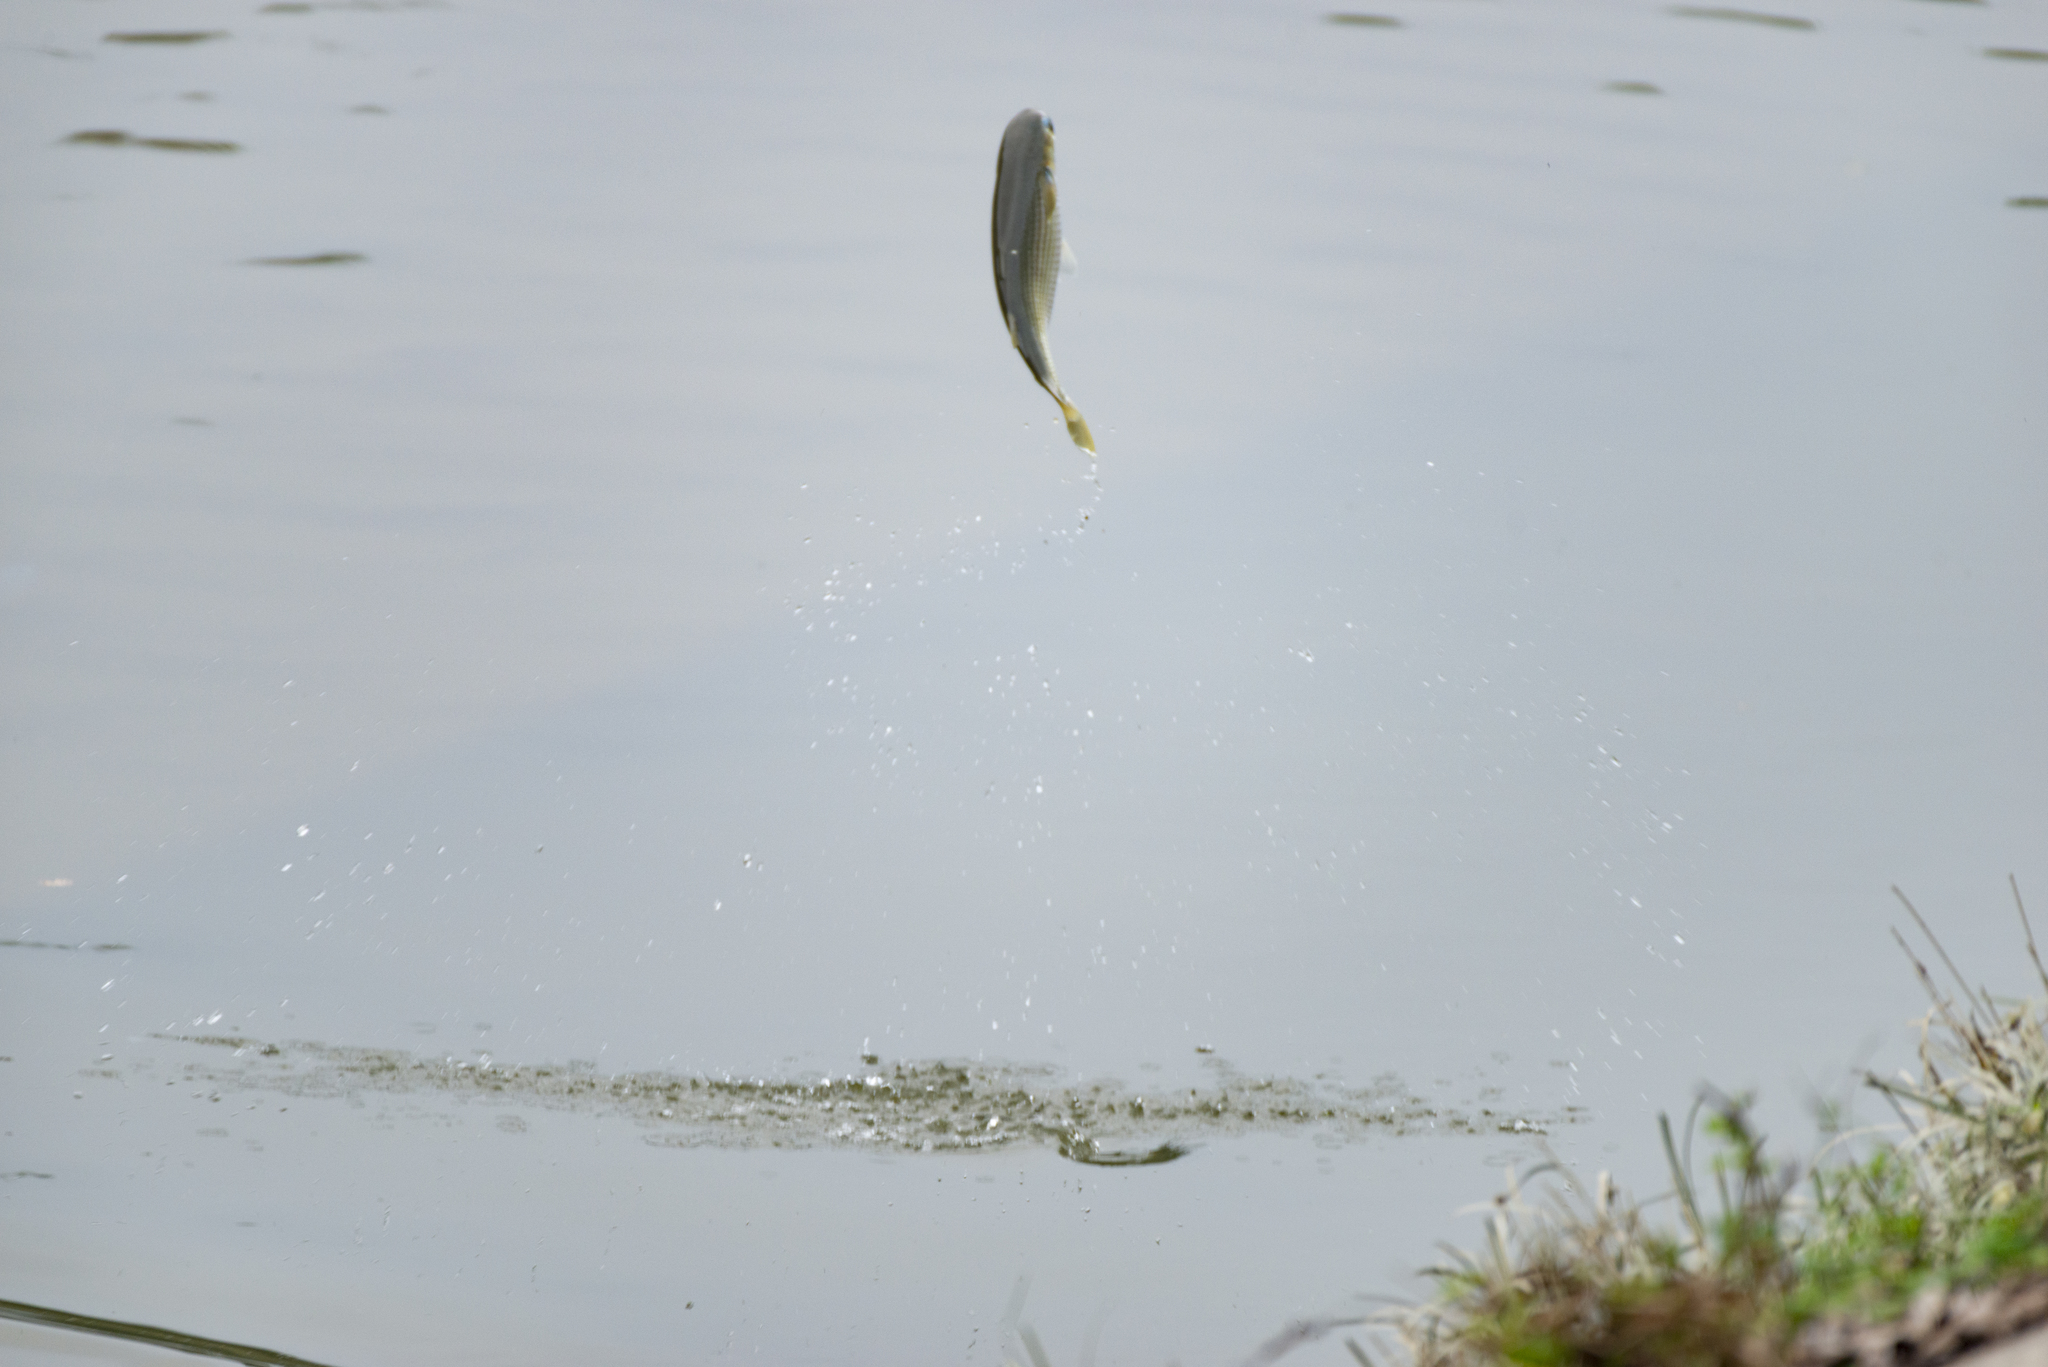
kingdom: Animalia
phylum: Chordata
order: Mugiliformes
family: Mugilidae
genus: Mugil
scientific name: Mugil cephalus
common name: Grey mullet
